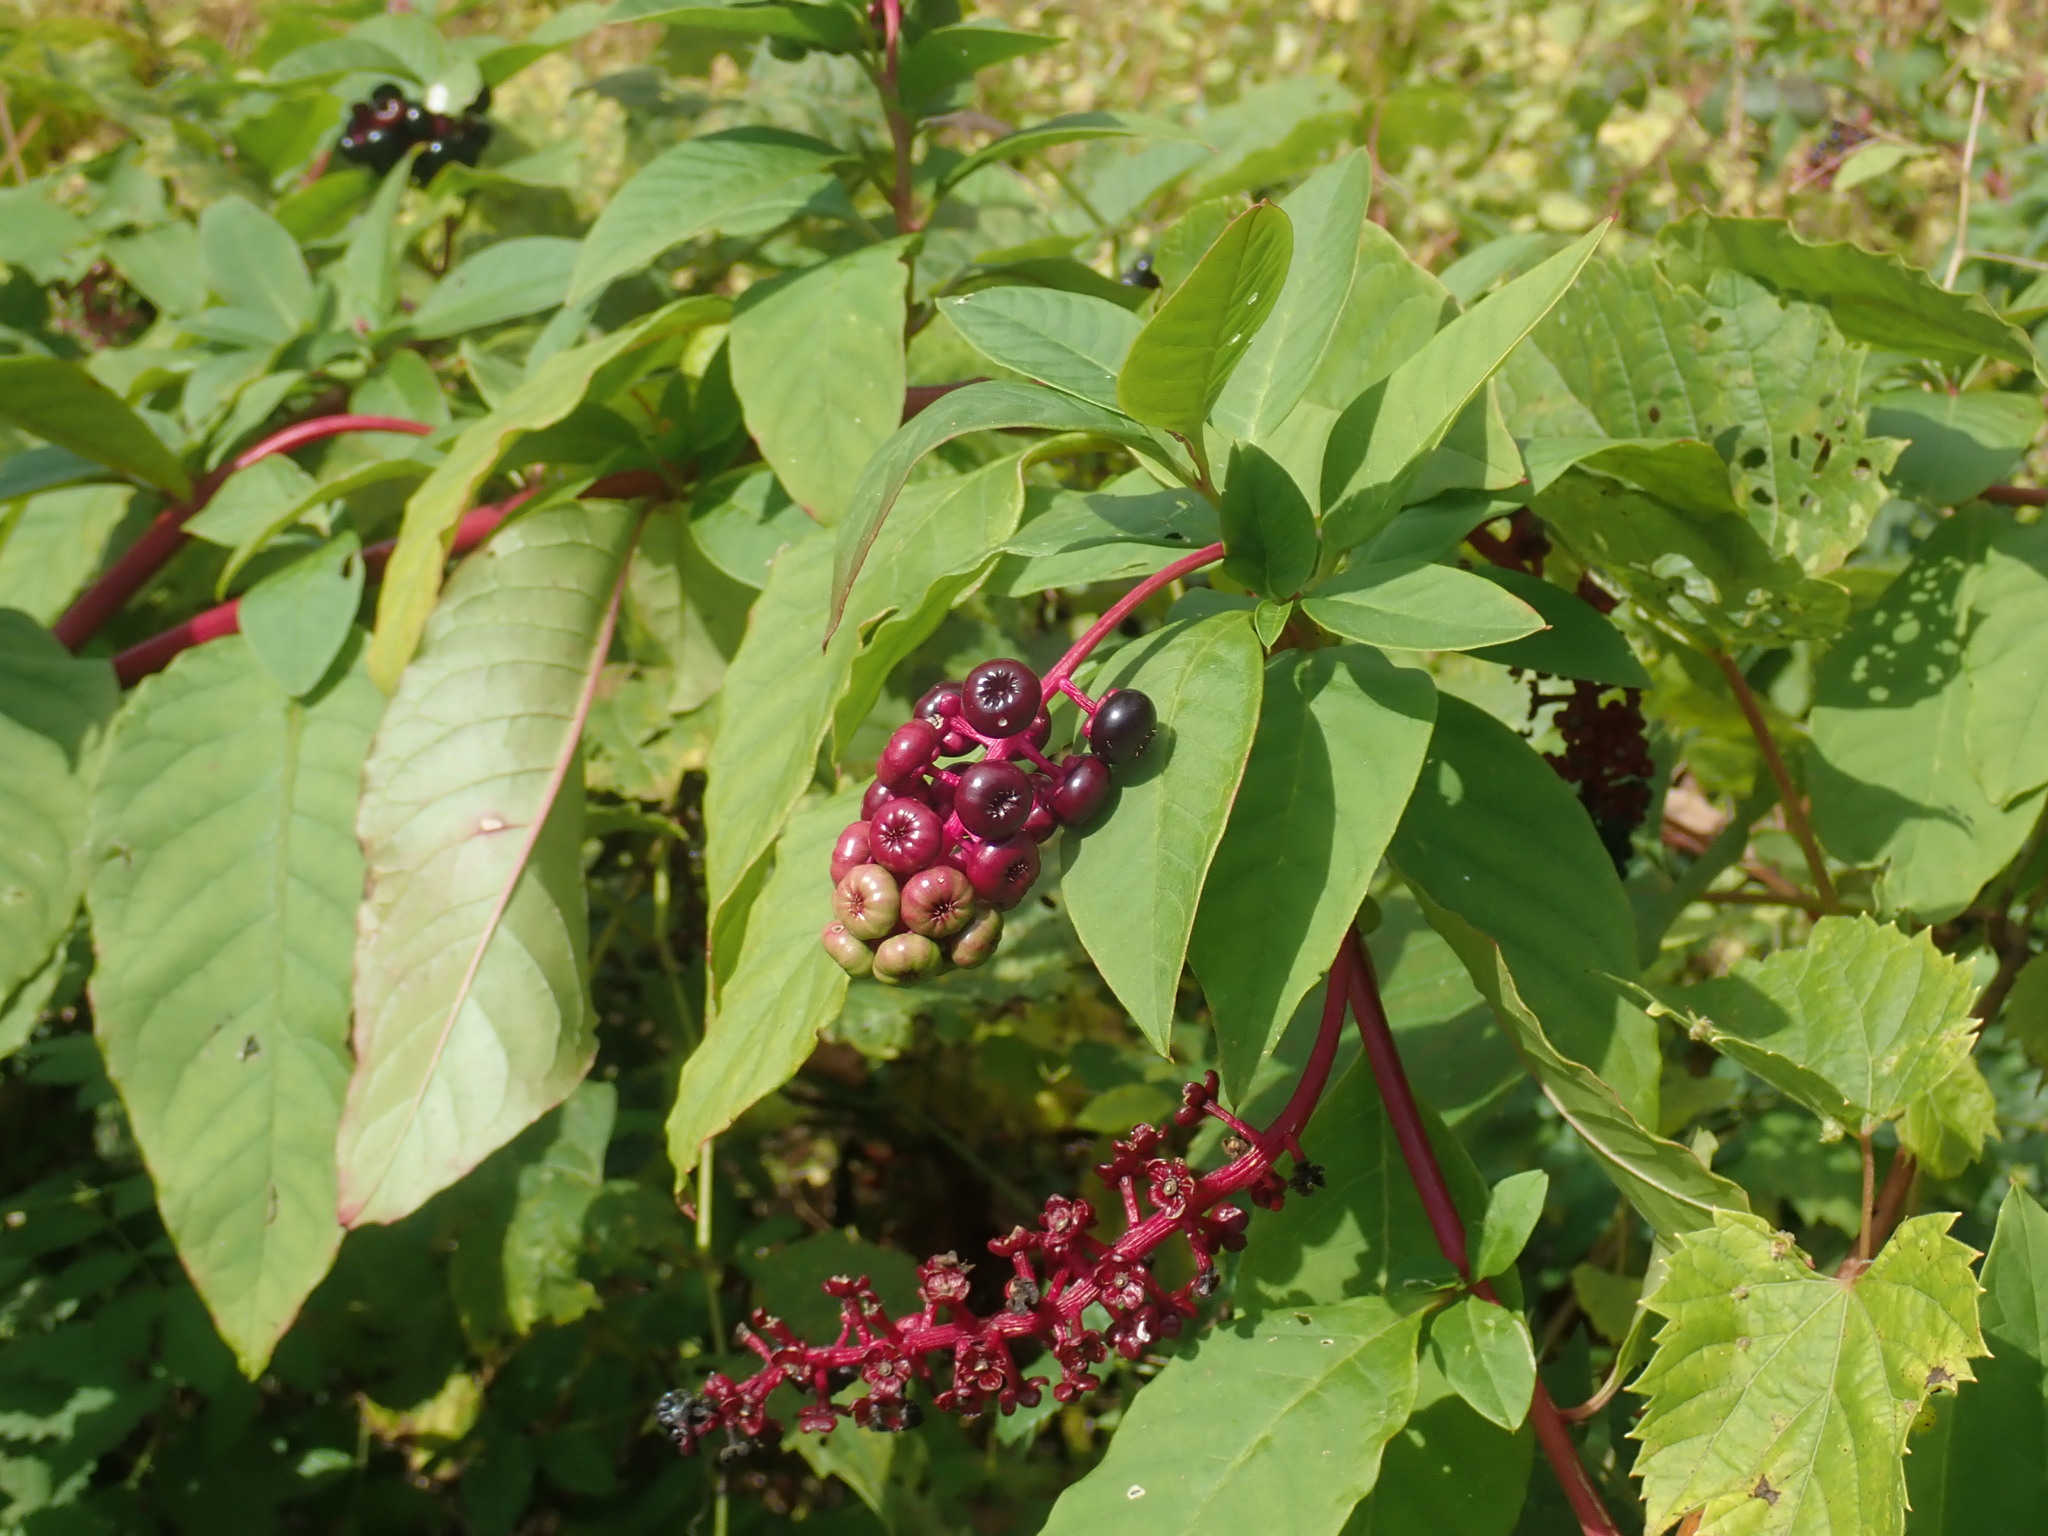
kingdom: Plantae
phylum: Tracheophyta
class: Magnoliopsida
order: Caryophyllales
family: Phytolaccaceae
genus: Phytolacca
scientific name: Phytolacca americana
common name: American pokeweed
